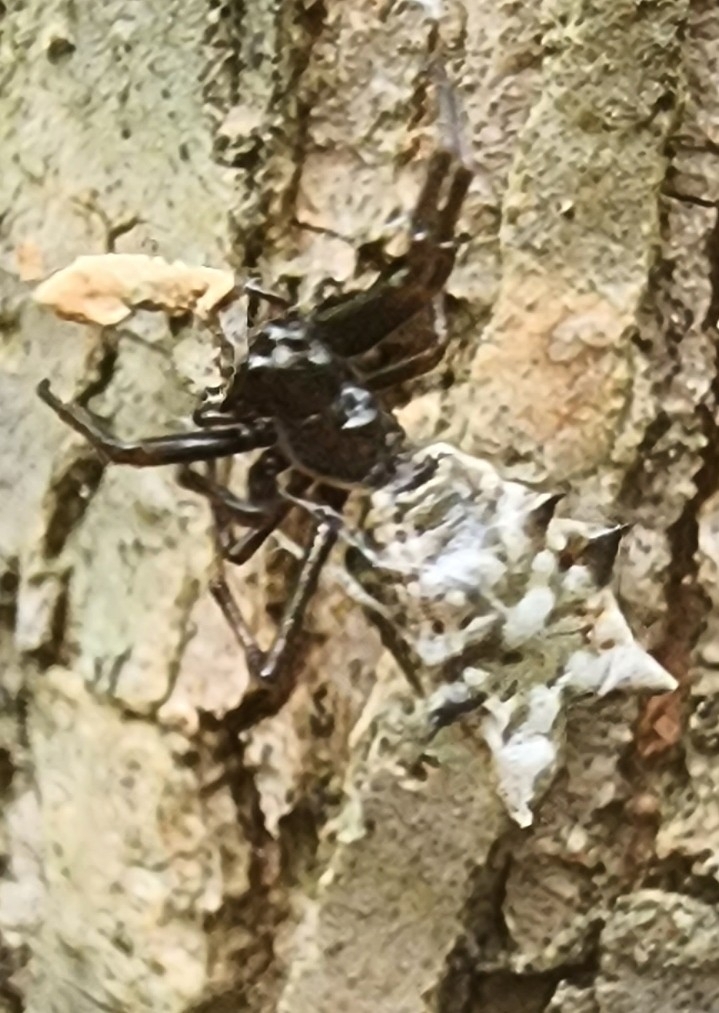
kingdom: Animalia
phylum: Arthropoda
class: Arachnida
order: Araneae
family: Araneidae
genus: Micrathena
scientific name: Micrathena gracilis
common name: Orb weavers
